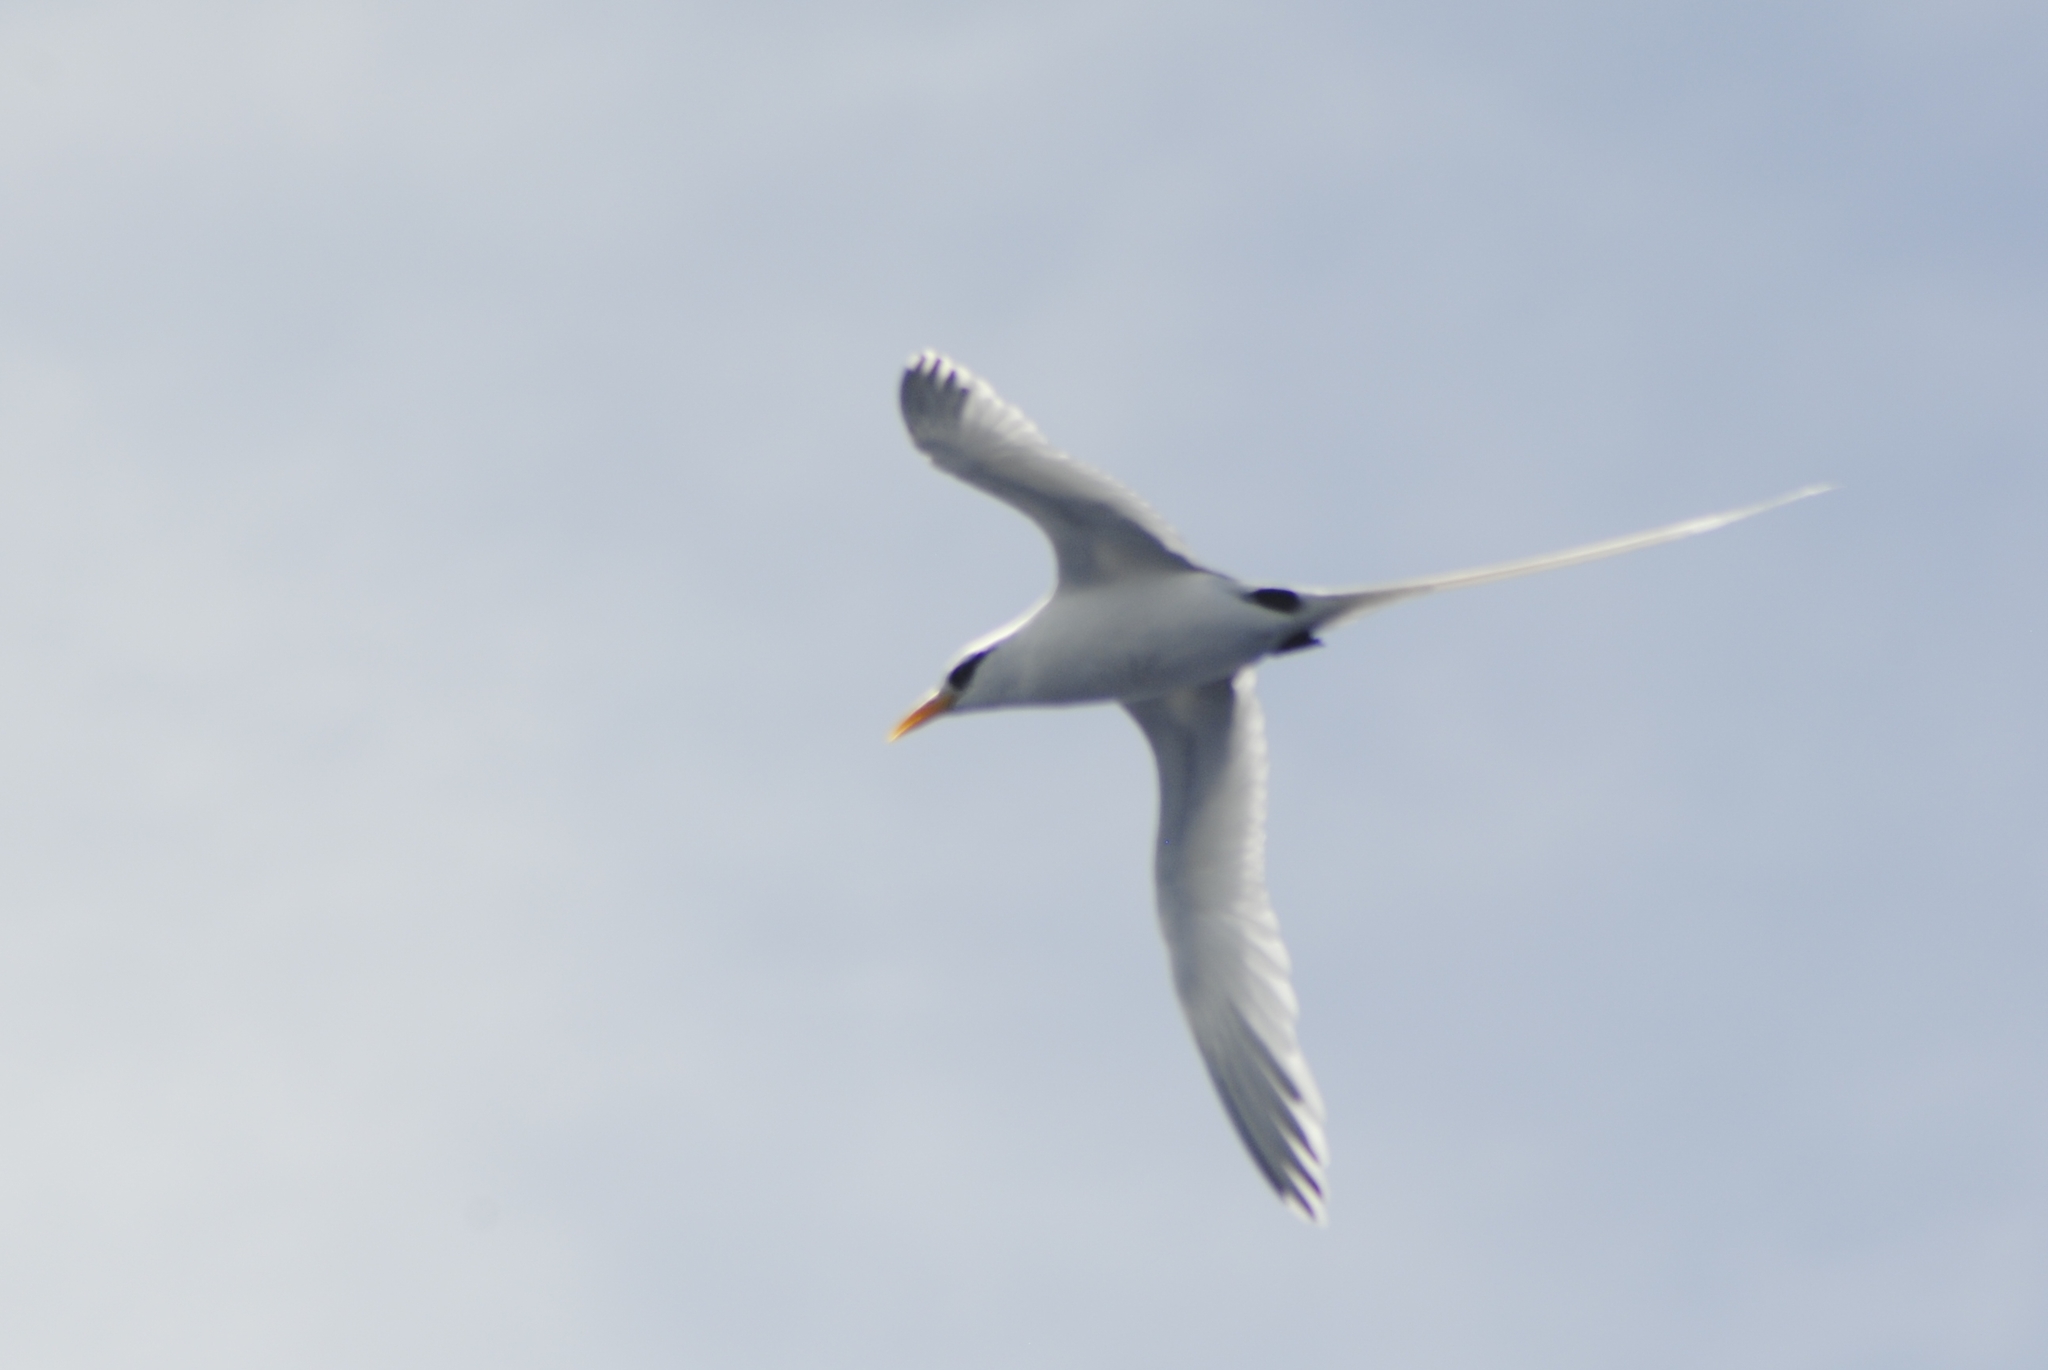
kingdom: Animalia
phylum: Chordata
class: Aves
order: Phaethontiformes
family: Phaethontidae
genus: Phaethon
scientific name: Phaethon lepturus
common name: White-tailed tropicbird
